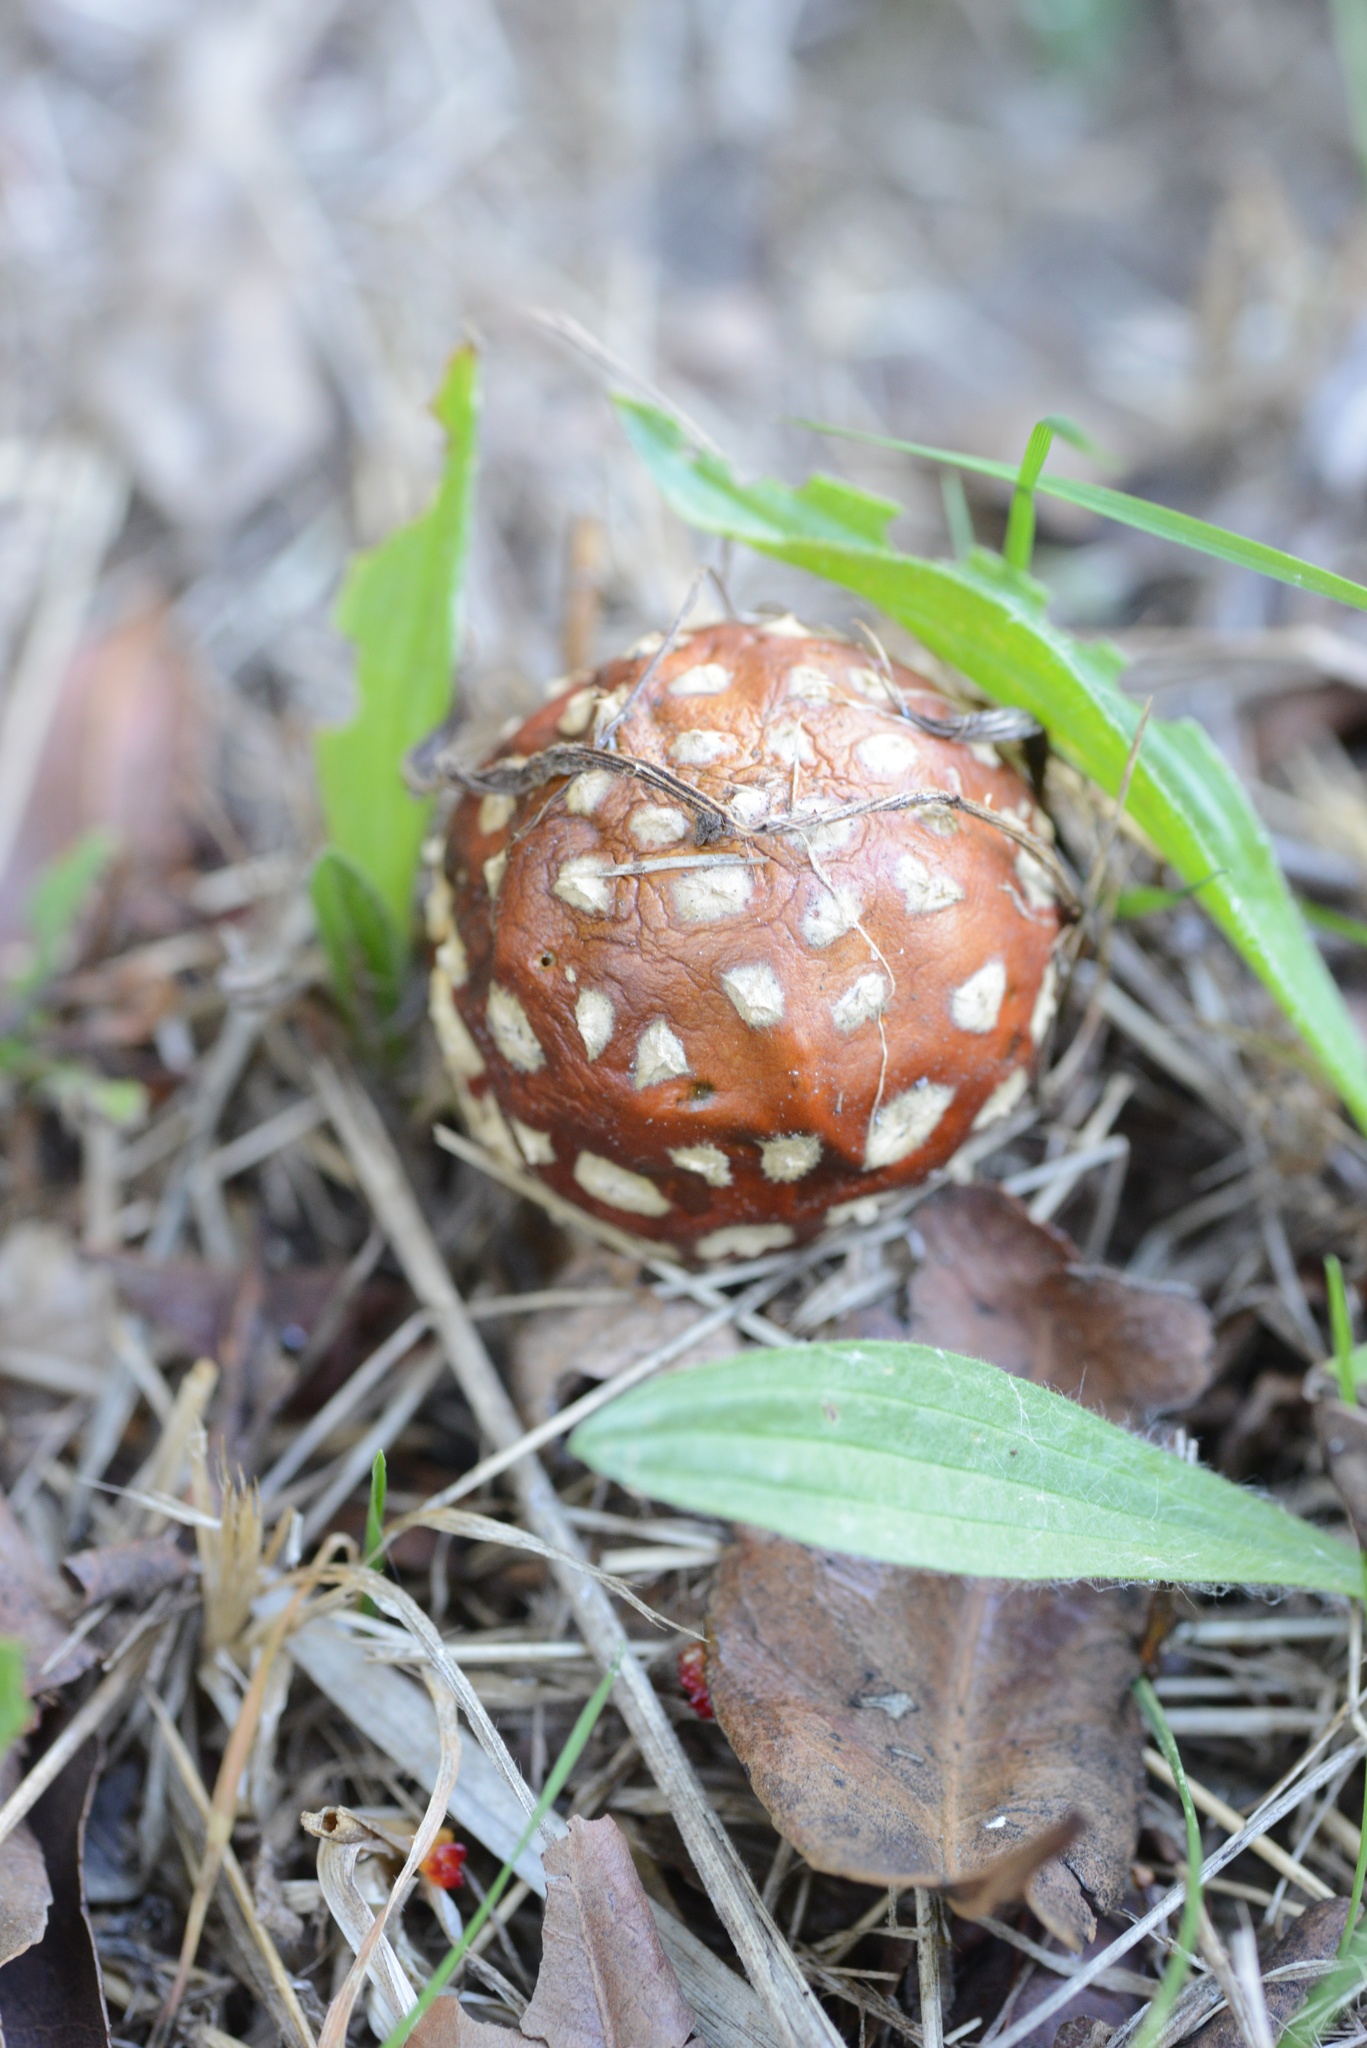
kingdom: Fungi
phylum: Basidiomycota
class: Agaricomycetes
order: Agaricales
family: Amanitaceae
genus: Amanita
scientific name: Amanita muscaria
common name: Fly agaric
